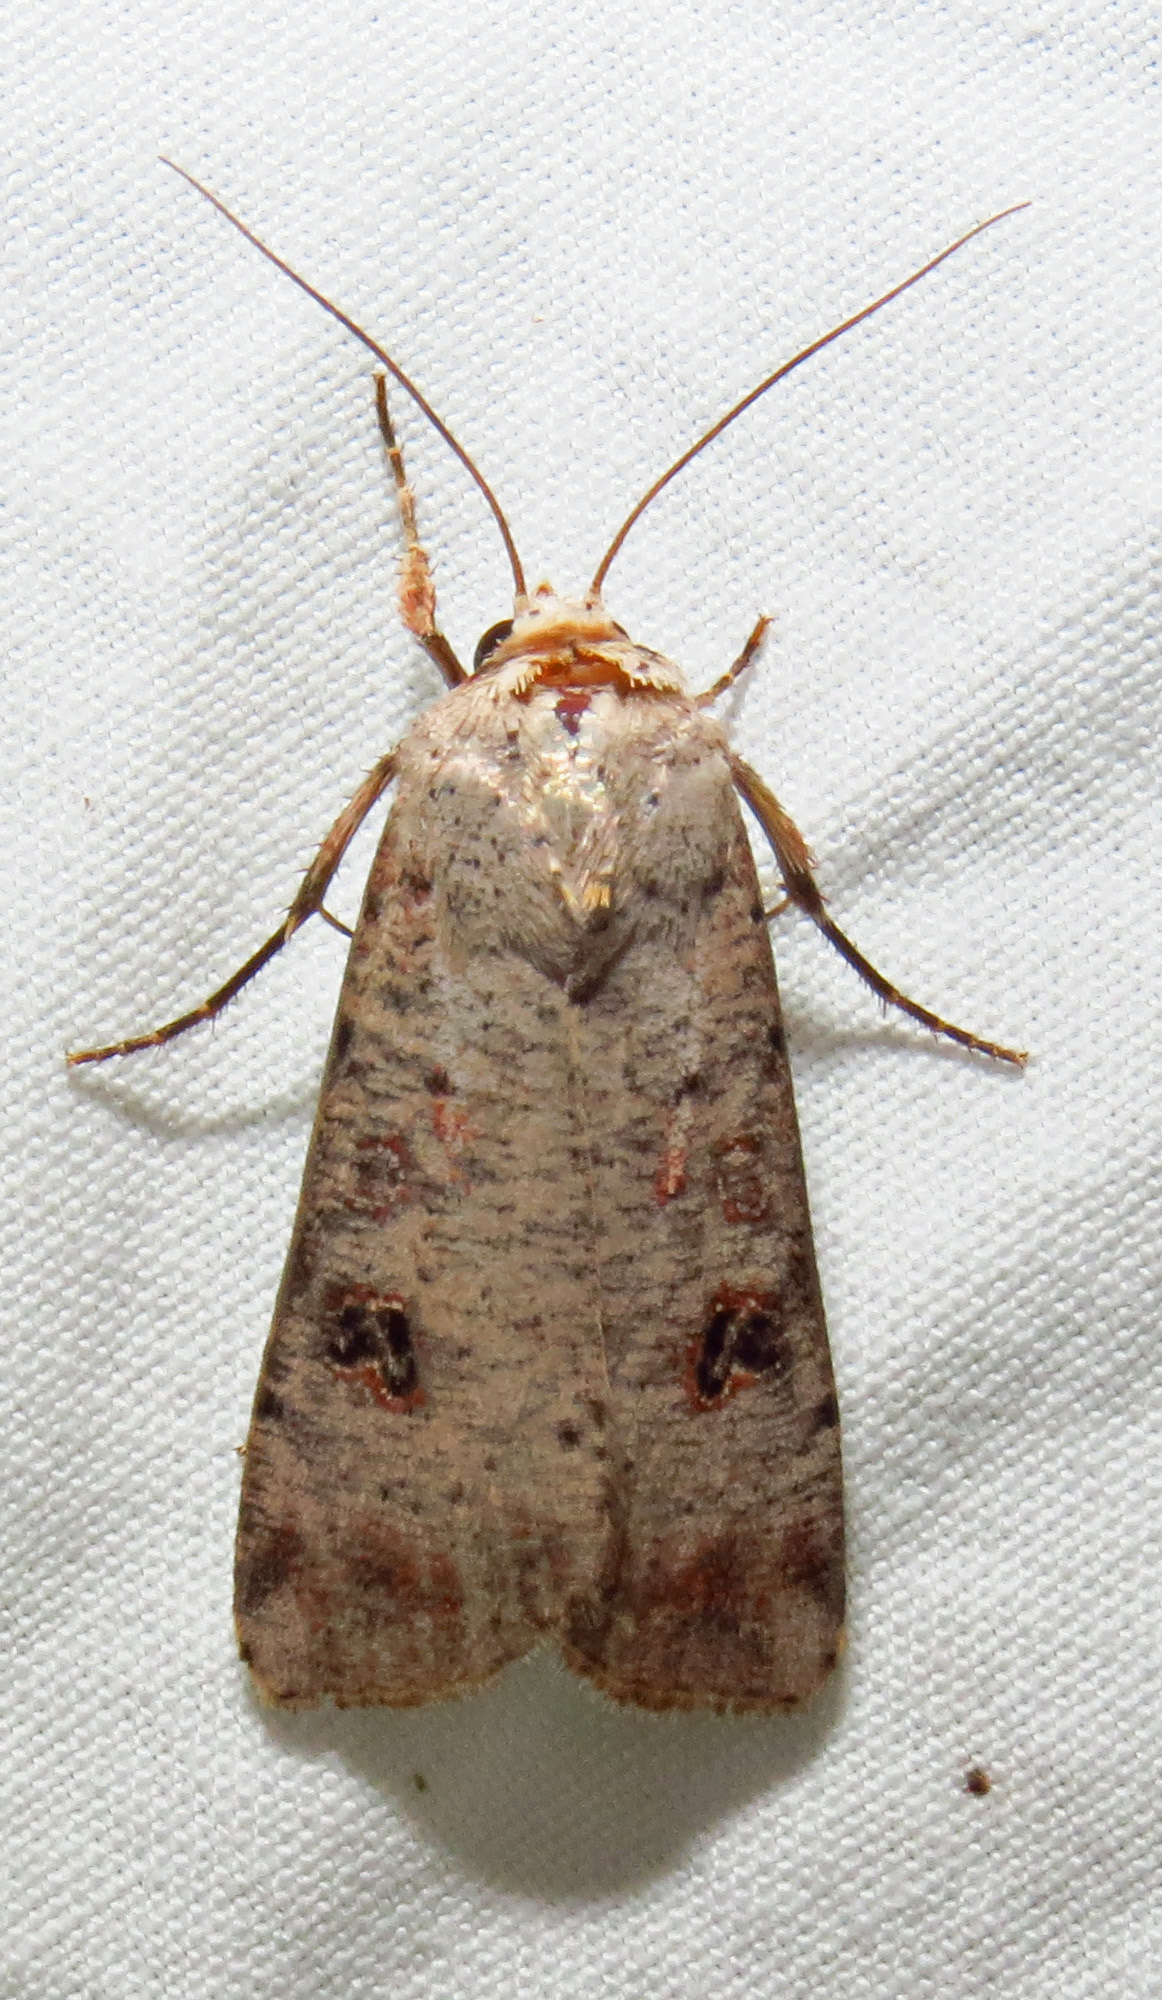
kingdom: Animalia
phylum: Arthropoda
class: Insecta
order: Lepidoptera
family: Noctuidae
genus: Anicla
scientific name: Anicla infecta
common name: Green cutworm
